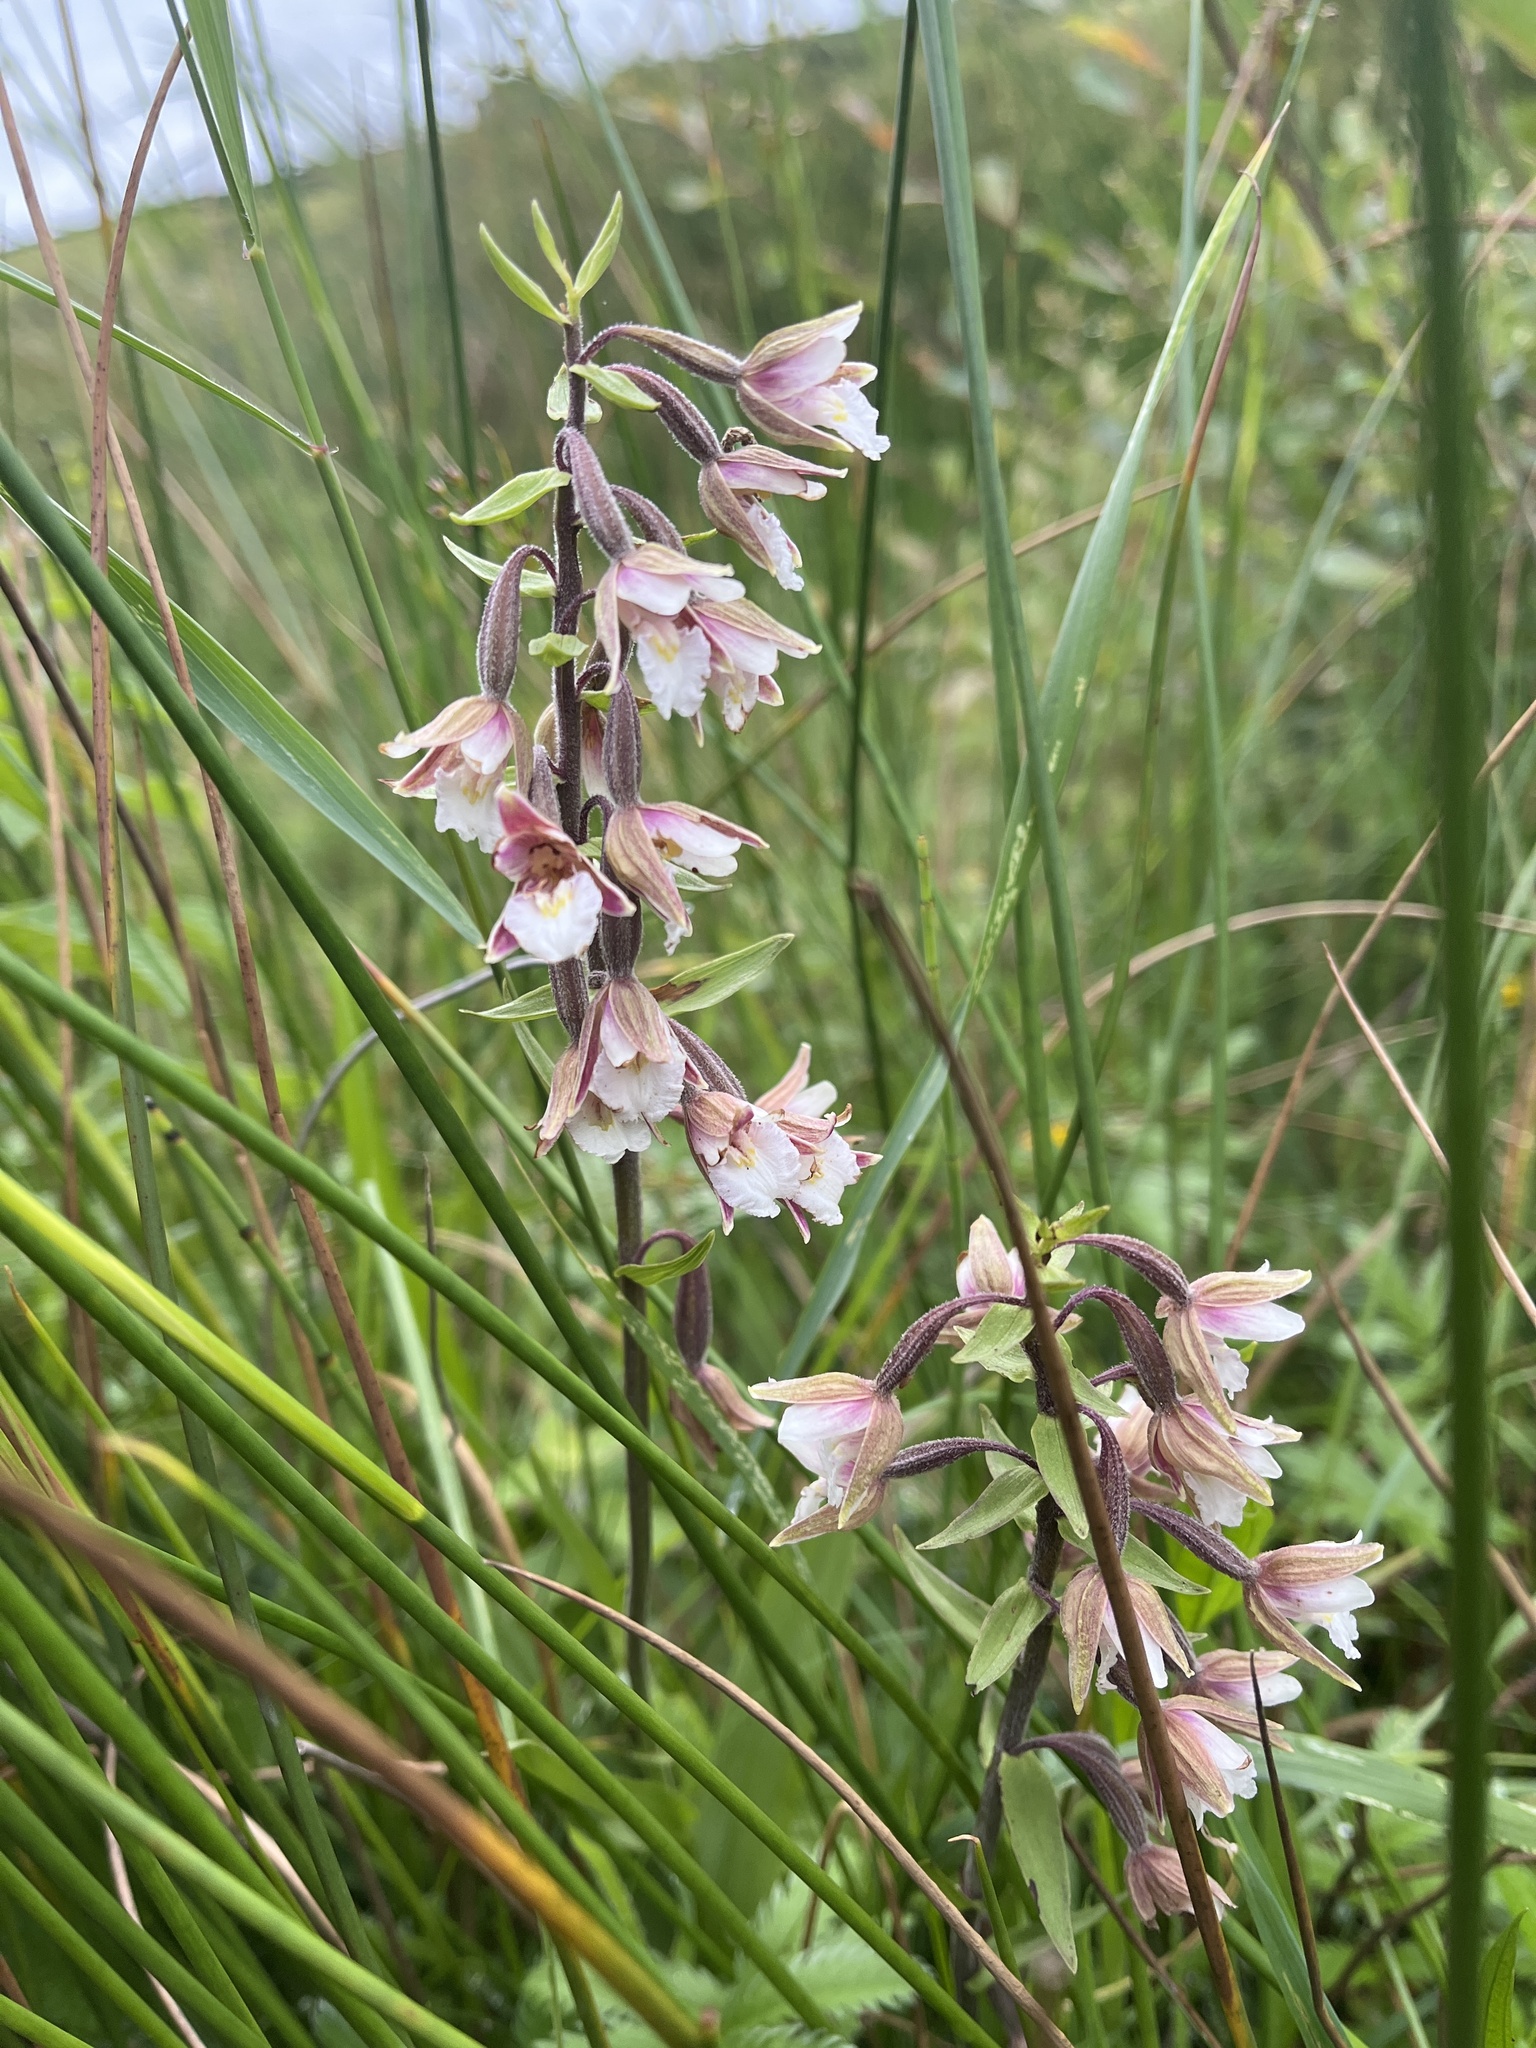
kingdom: Plantae
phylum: Tracheophyta
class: Liliopsida
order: Asparagales
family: Orchidaceae
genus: Epipactis
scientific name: Epipactis palustris
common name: Marsh helleborine
